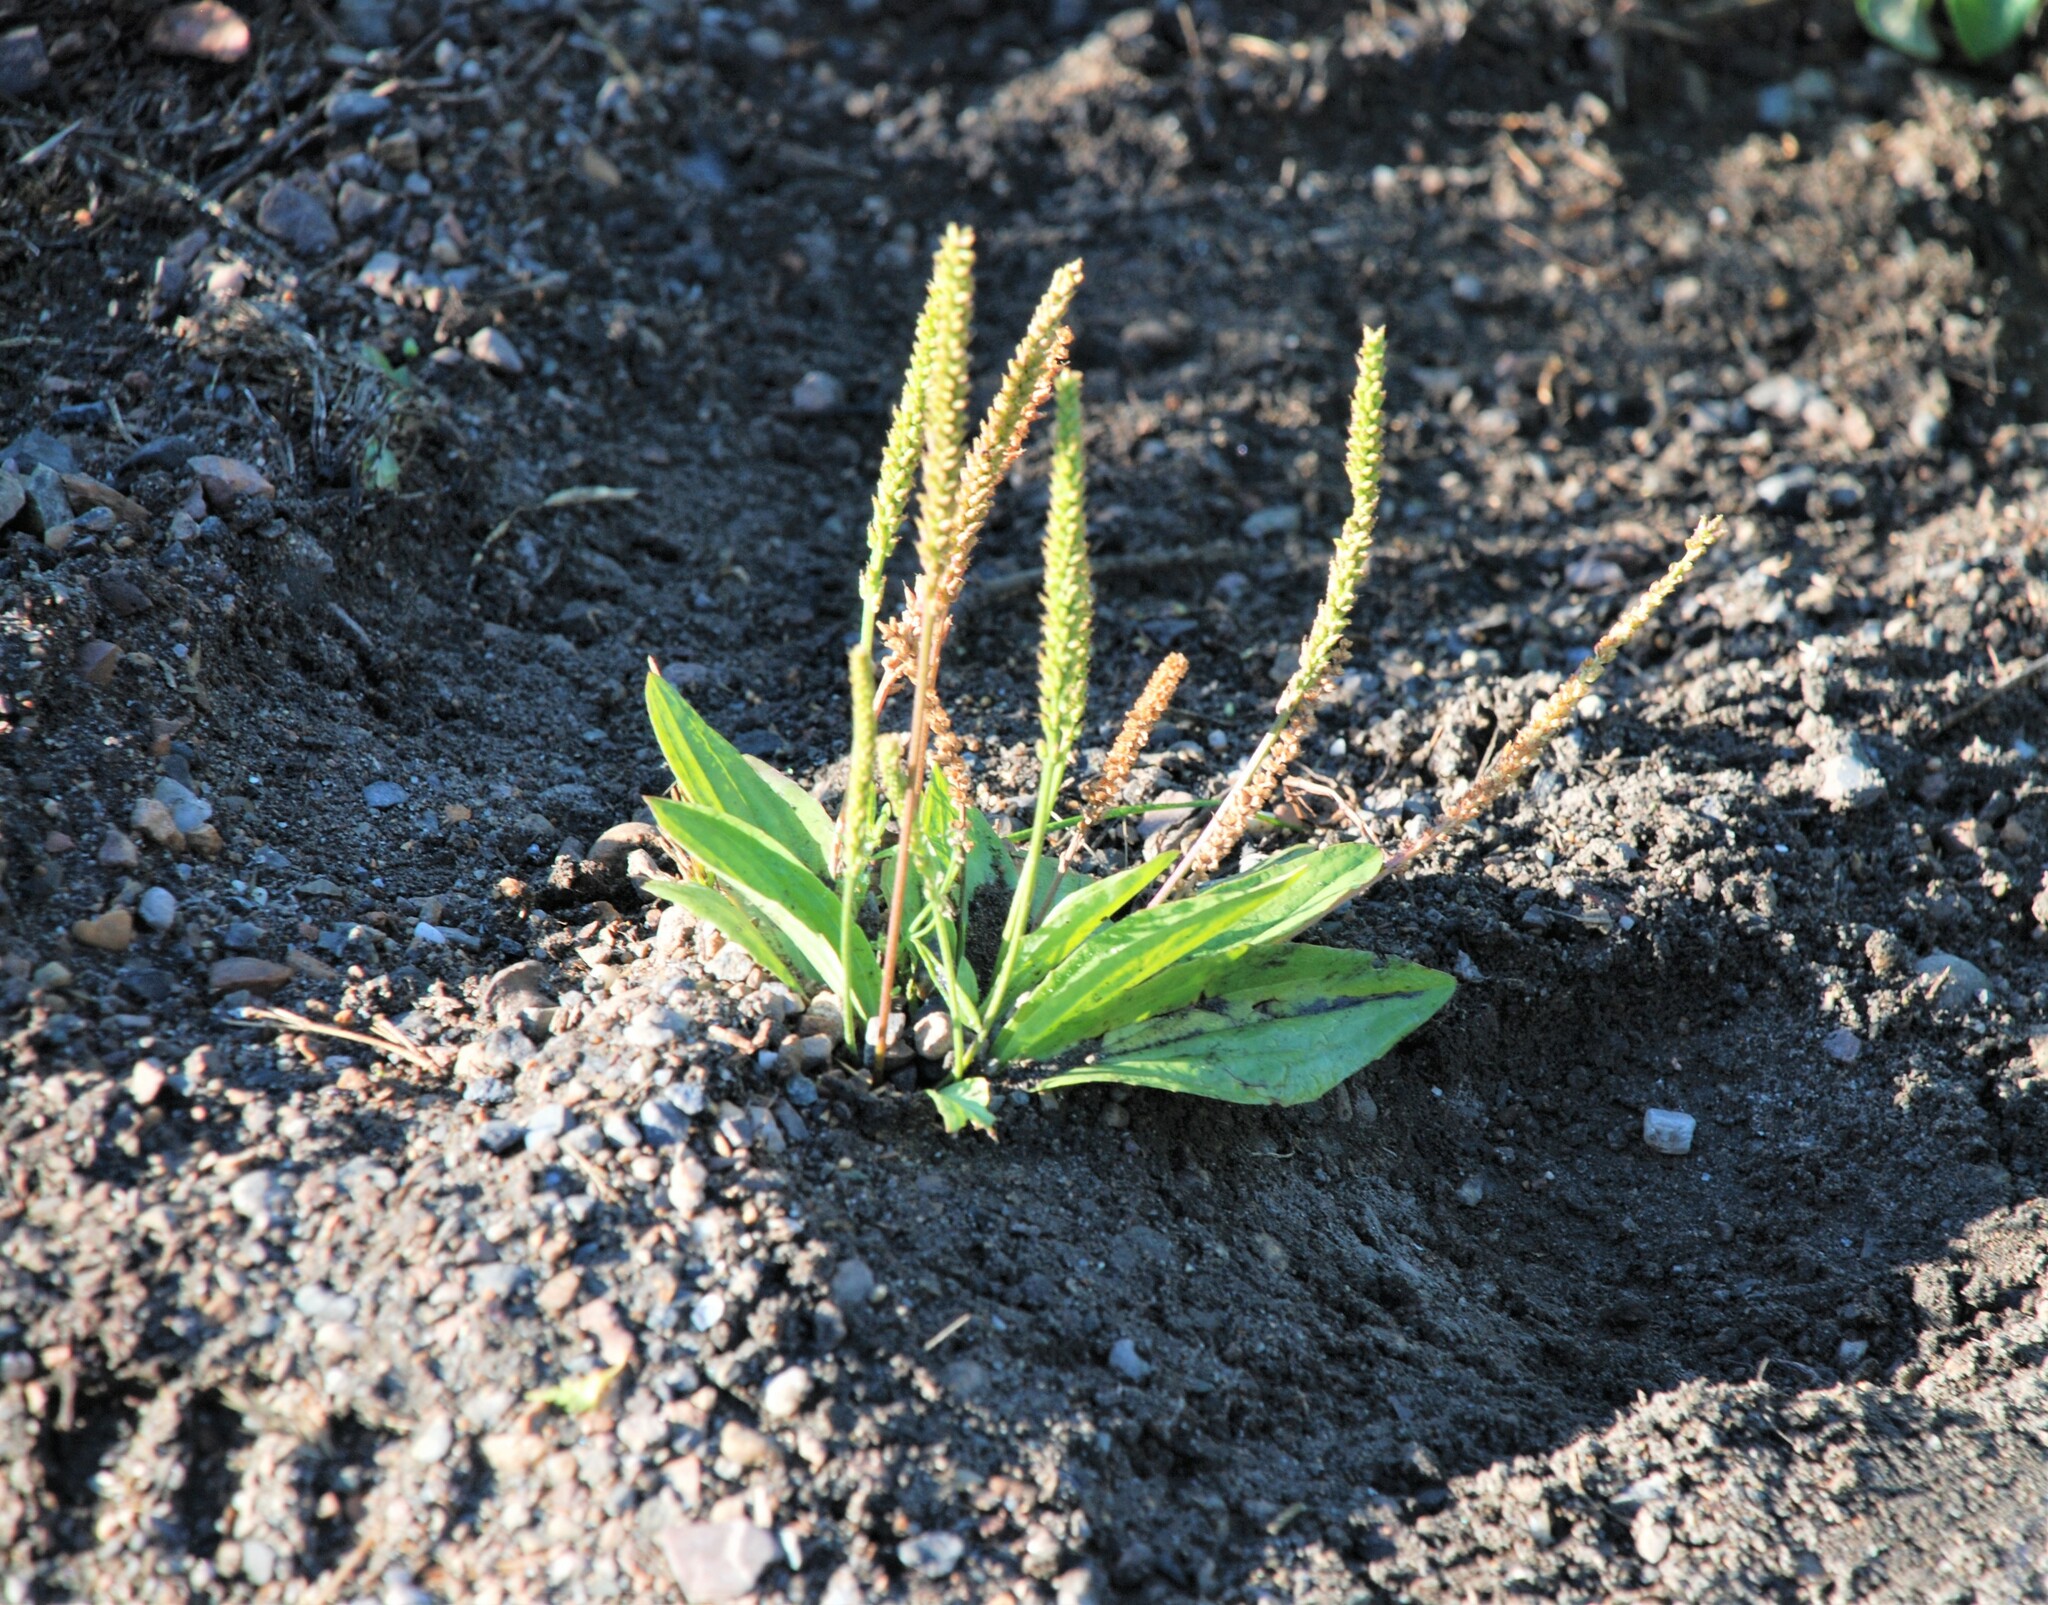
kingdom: Plantae
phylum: Tracheophyta
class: Magnoliopsida
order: Lamiales
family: Plantaginaceae
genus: Plantago
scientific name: Plantago depressa
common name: Depressed plantain
